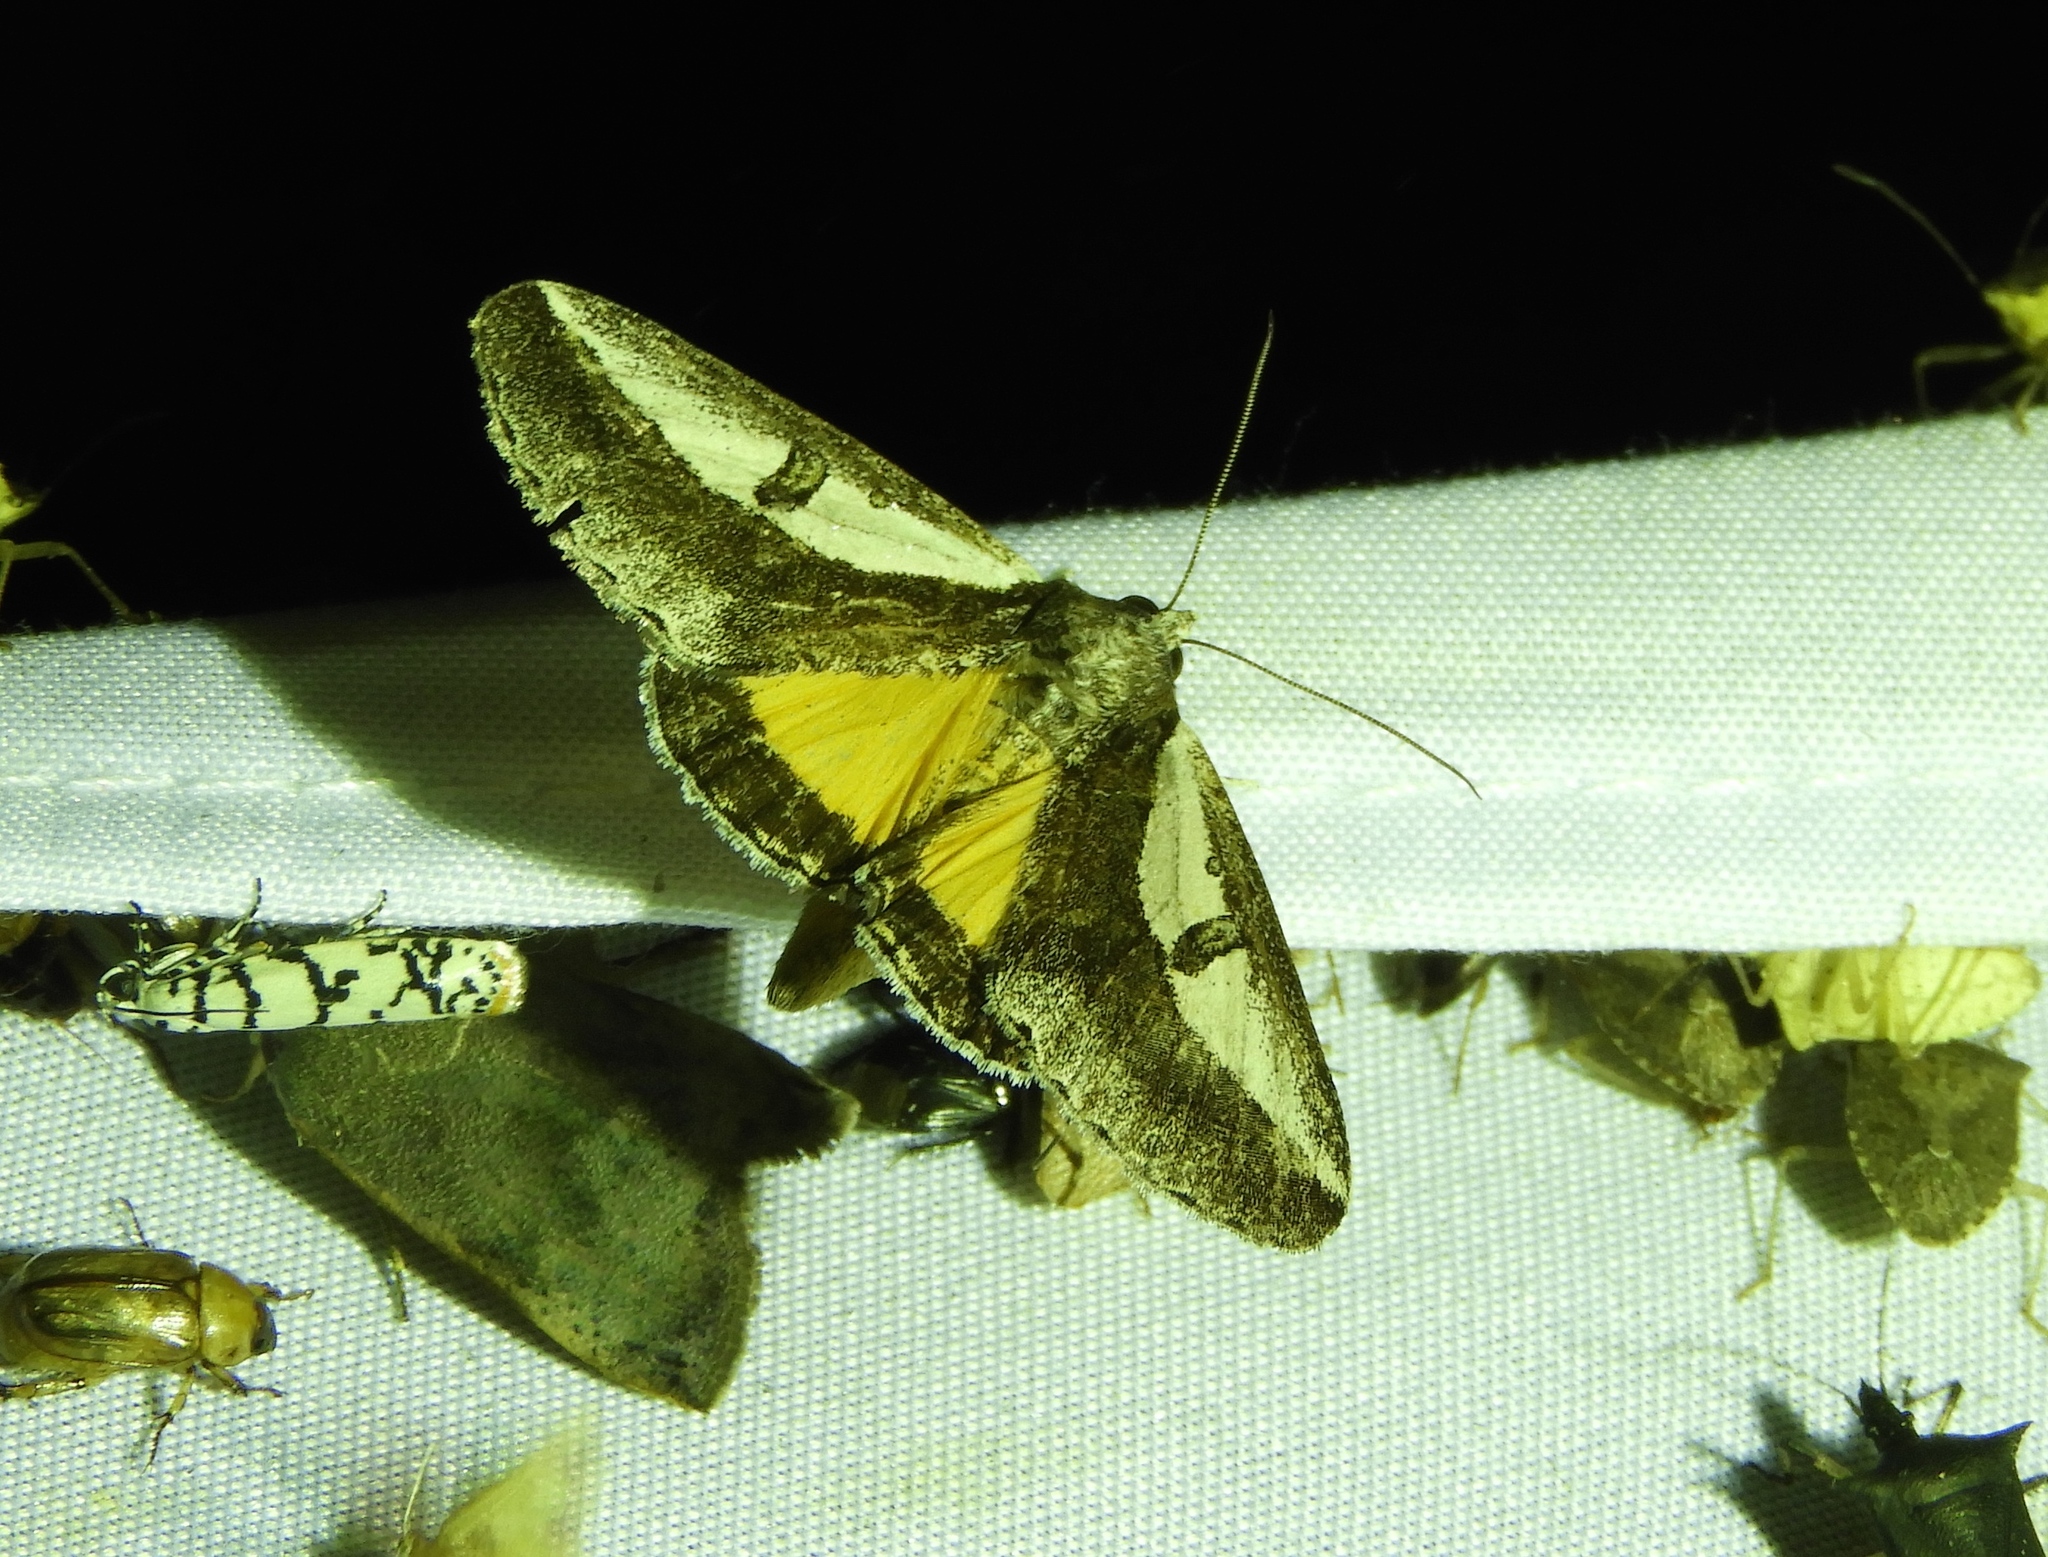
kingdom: Animalia
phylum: Arthropoda
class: Insecta
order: Lepidoptera
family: Noctuidae
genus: Euscirrhopterus
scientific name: Euscirrhopterus
